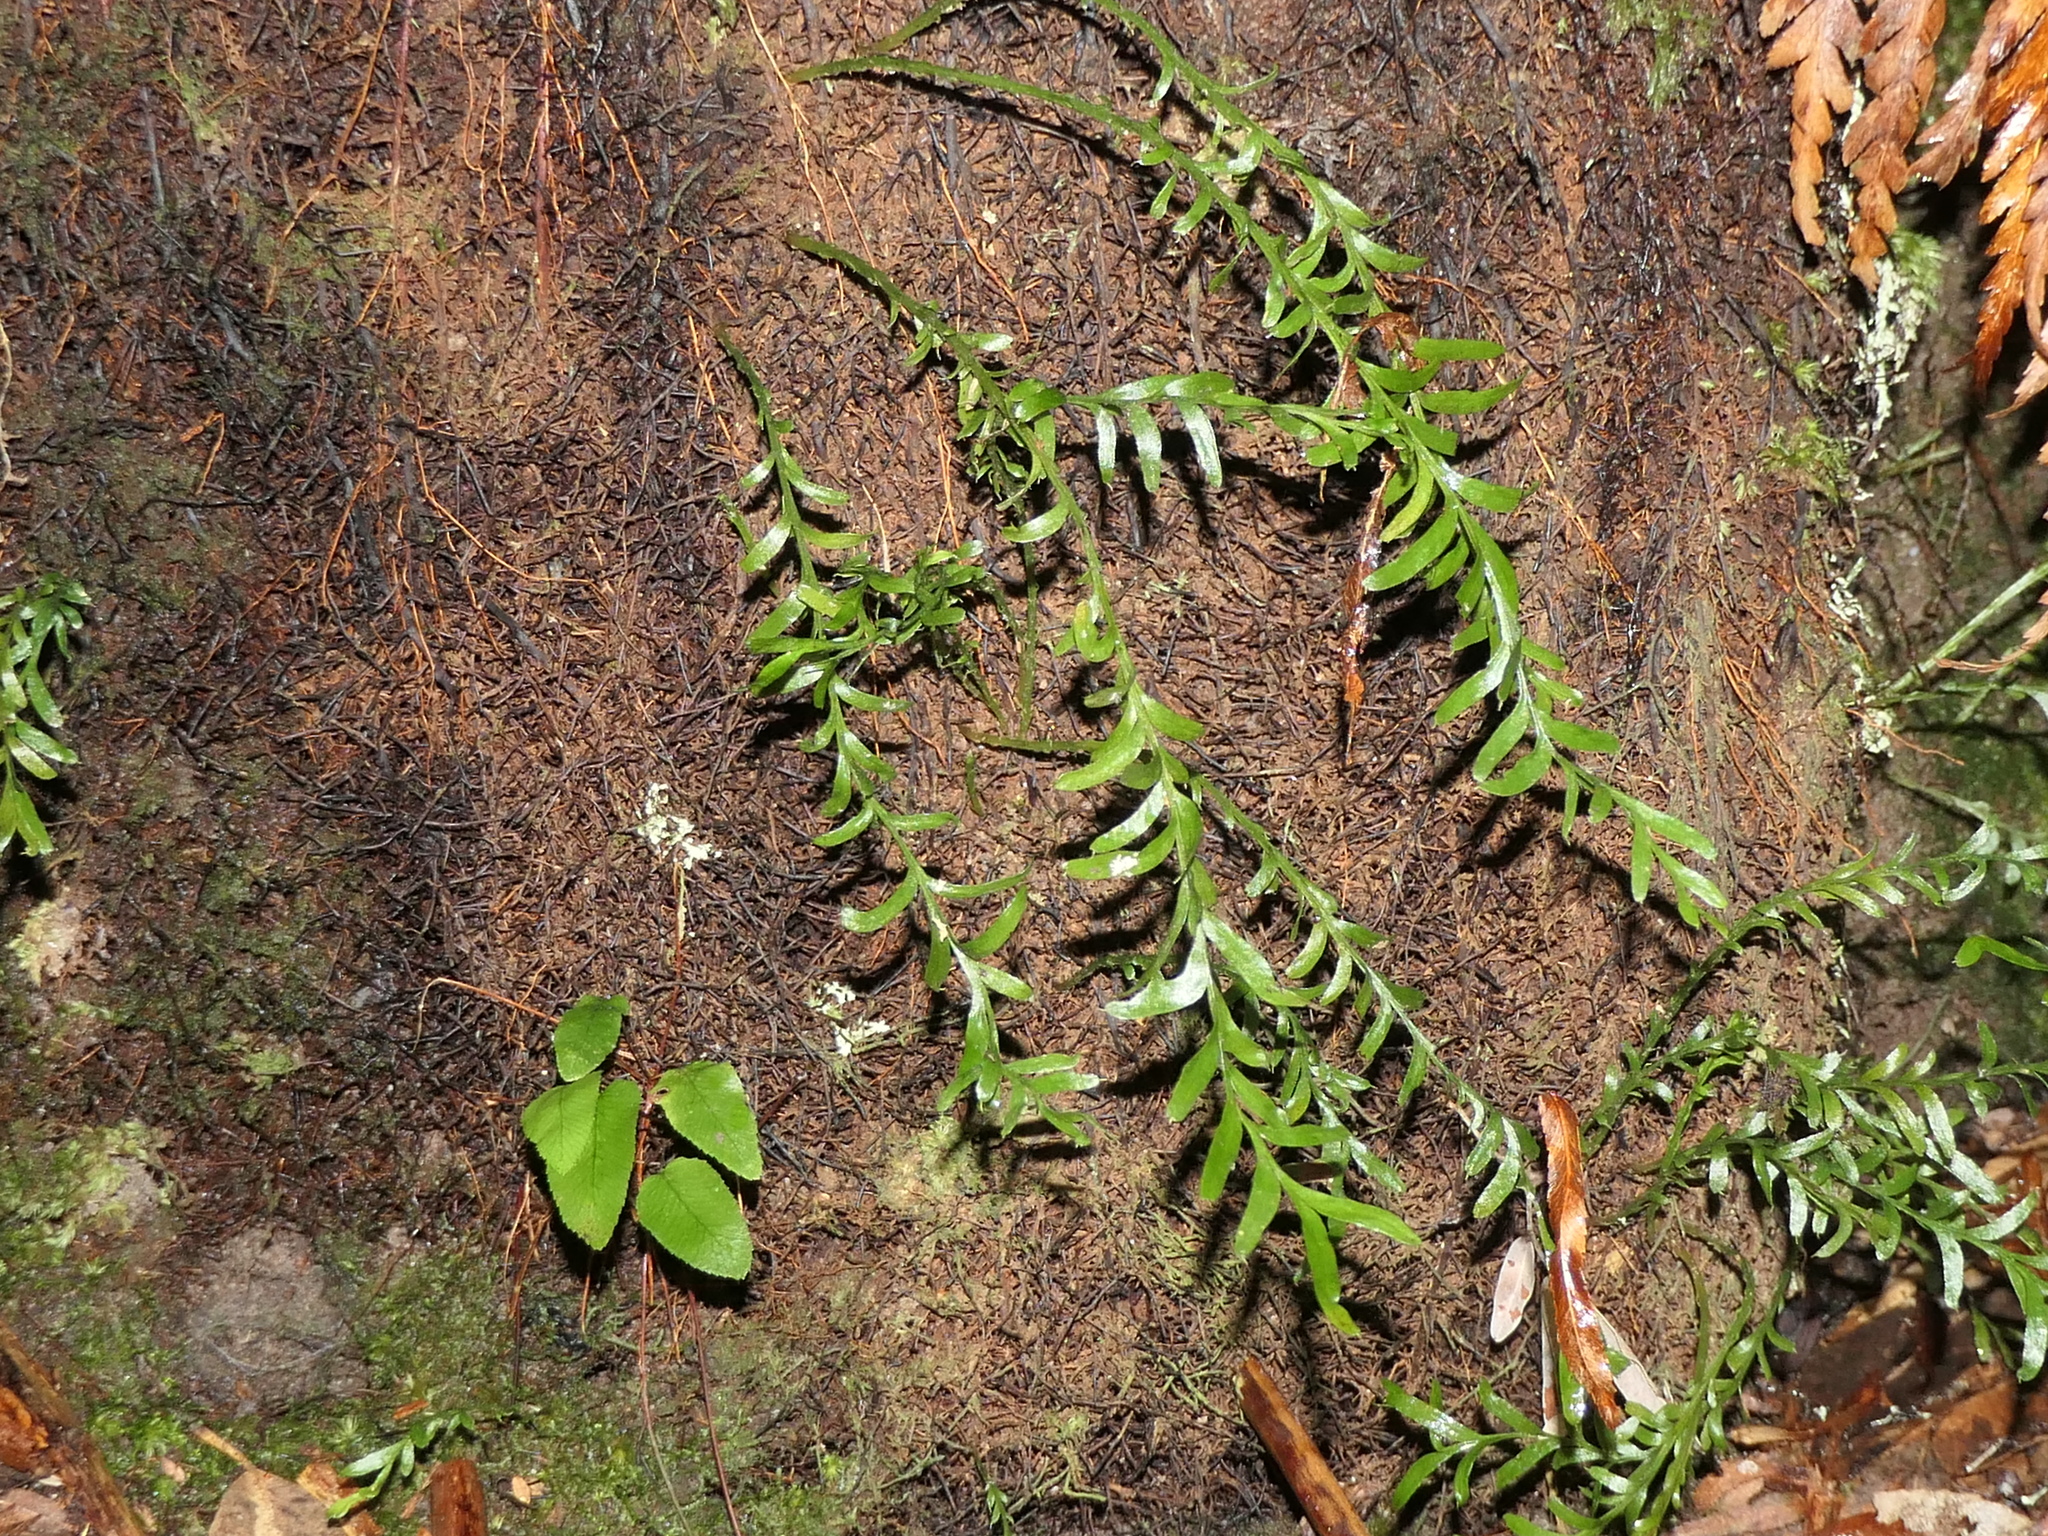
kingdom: Plantae
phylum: Tracheophyta
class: Polypodiopsida
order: Psilotales
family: Psilotaceae
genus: Tmesipteris
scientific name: Tmesipteris truncata
